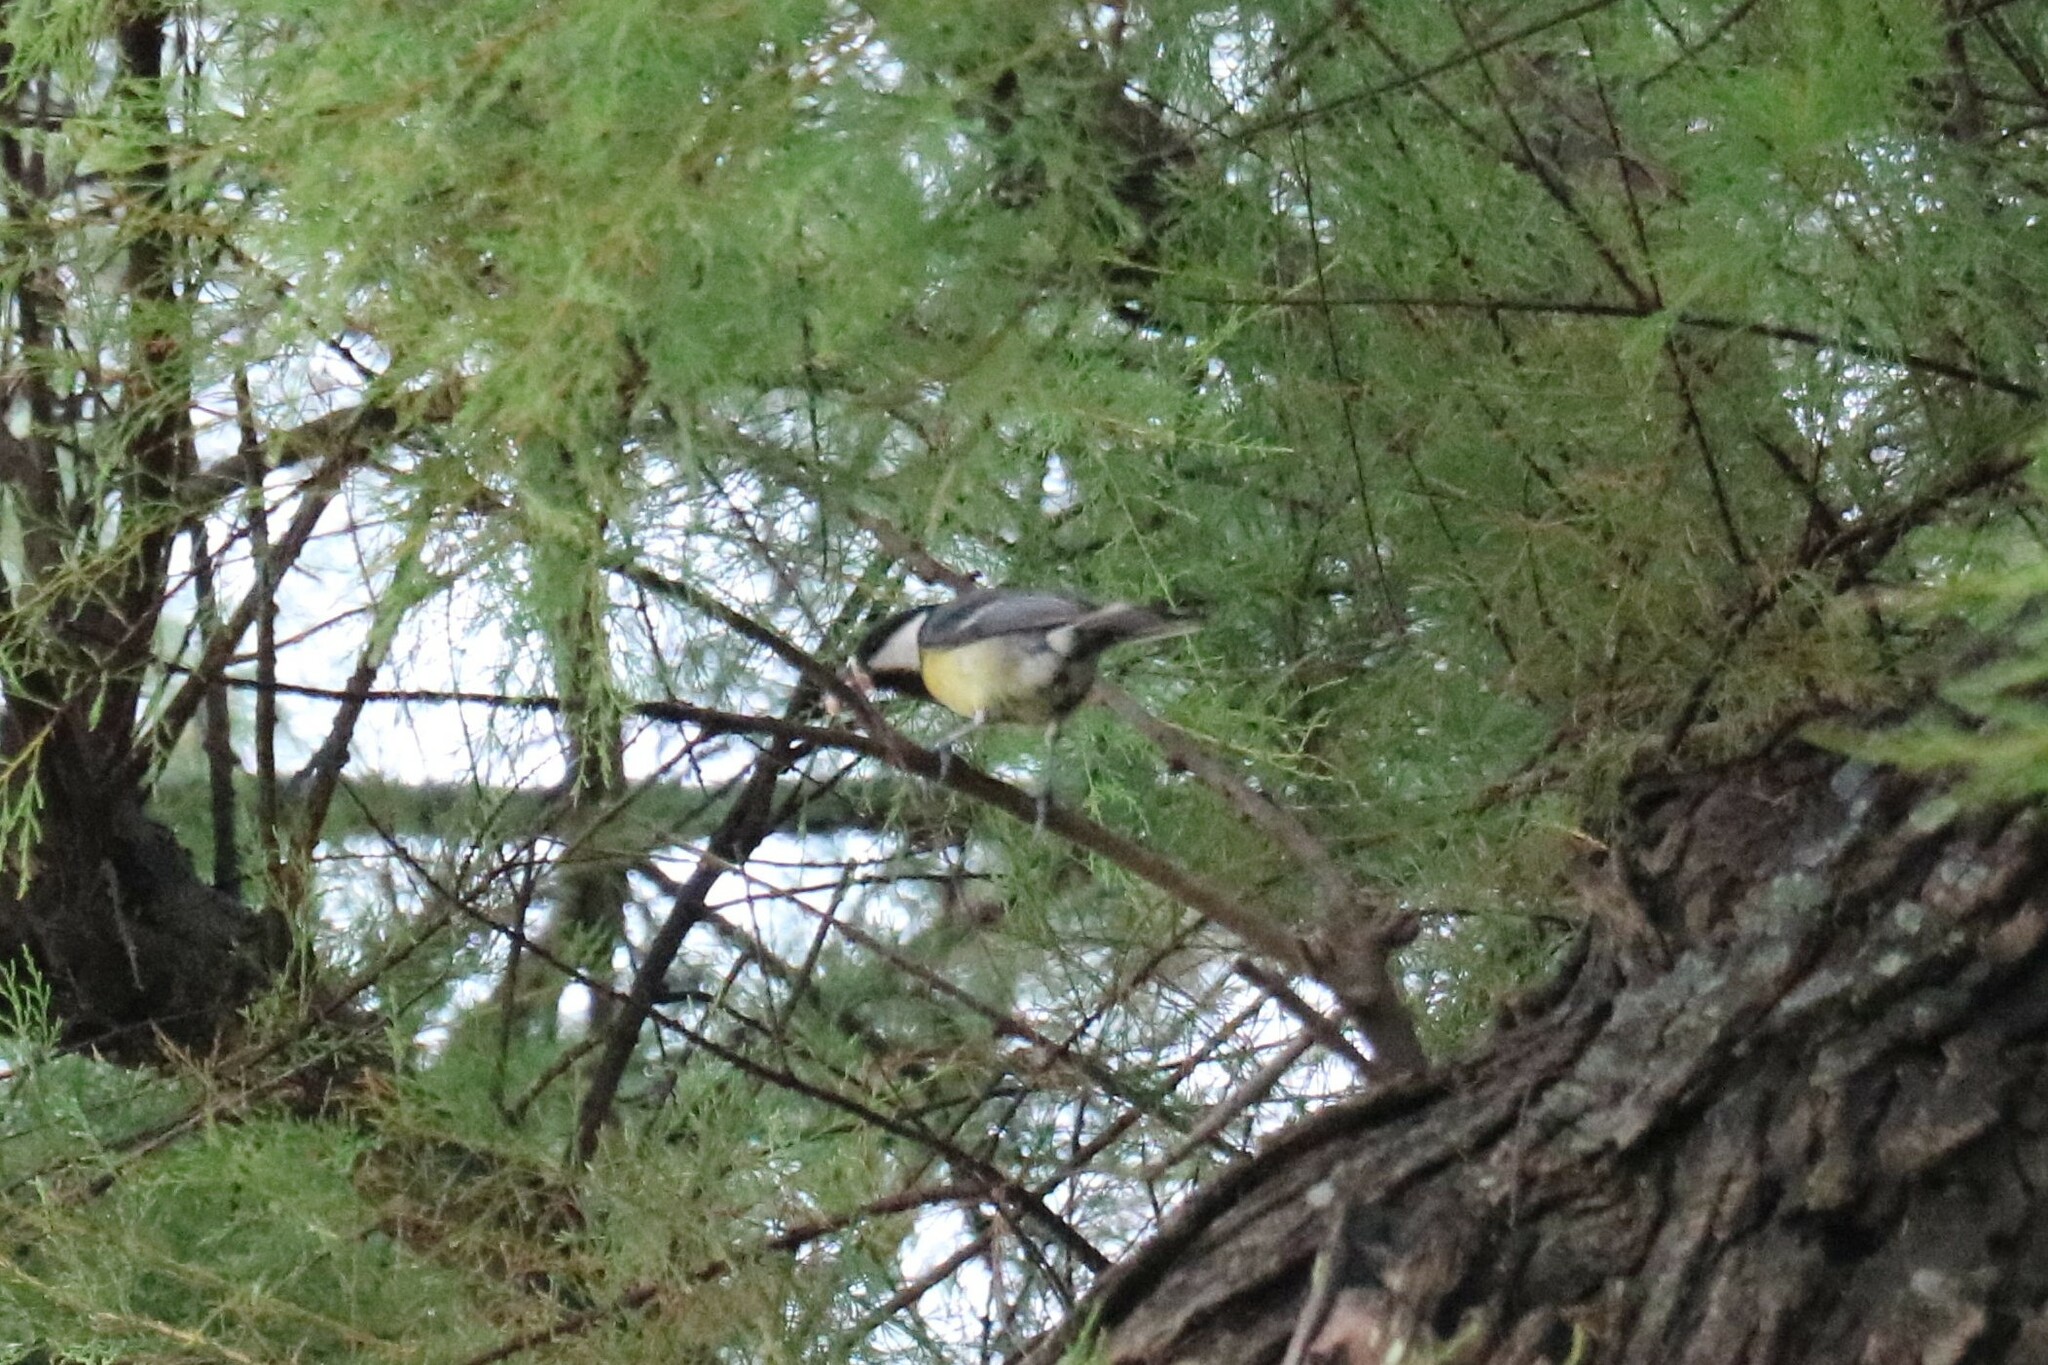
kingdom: Animalia
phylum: Chordata
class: Aves
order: Passeriformes
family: Paridae
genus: Parus
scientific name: Parus major
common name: Great tit
